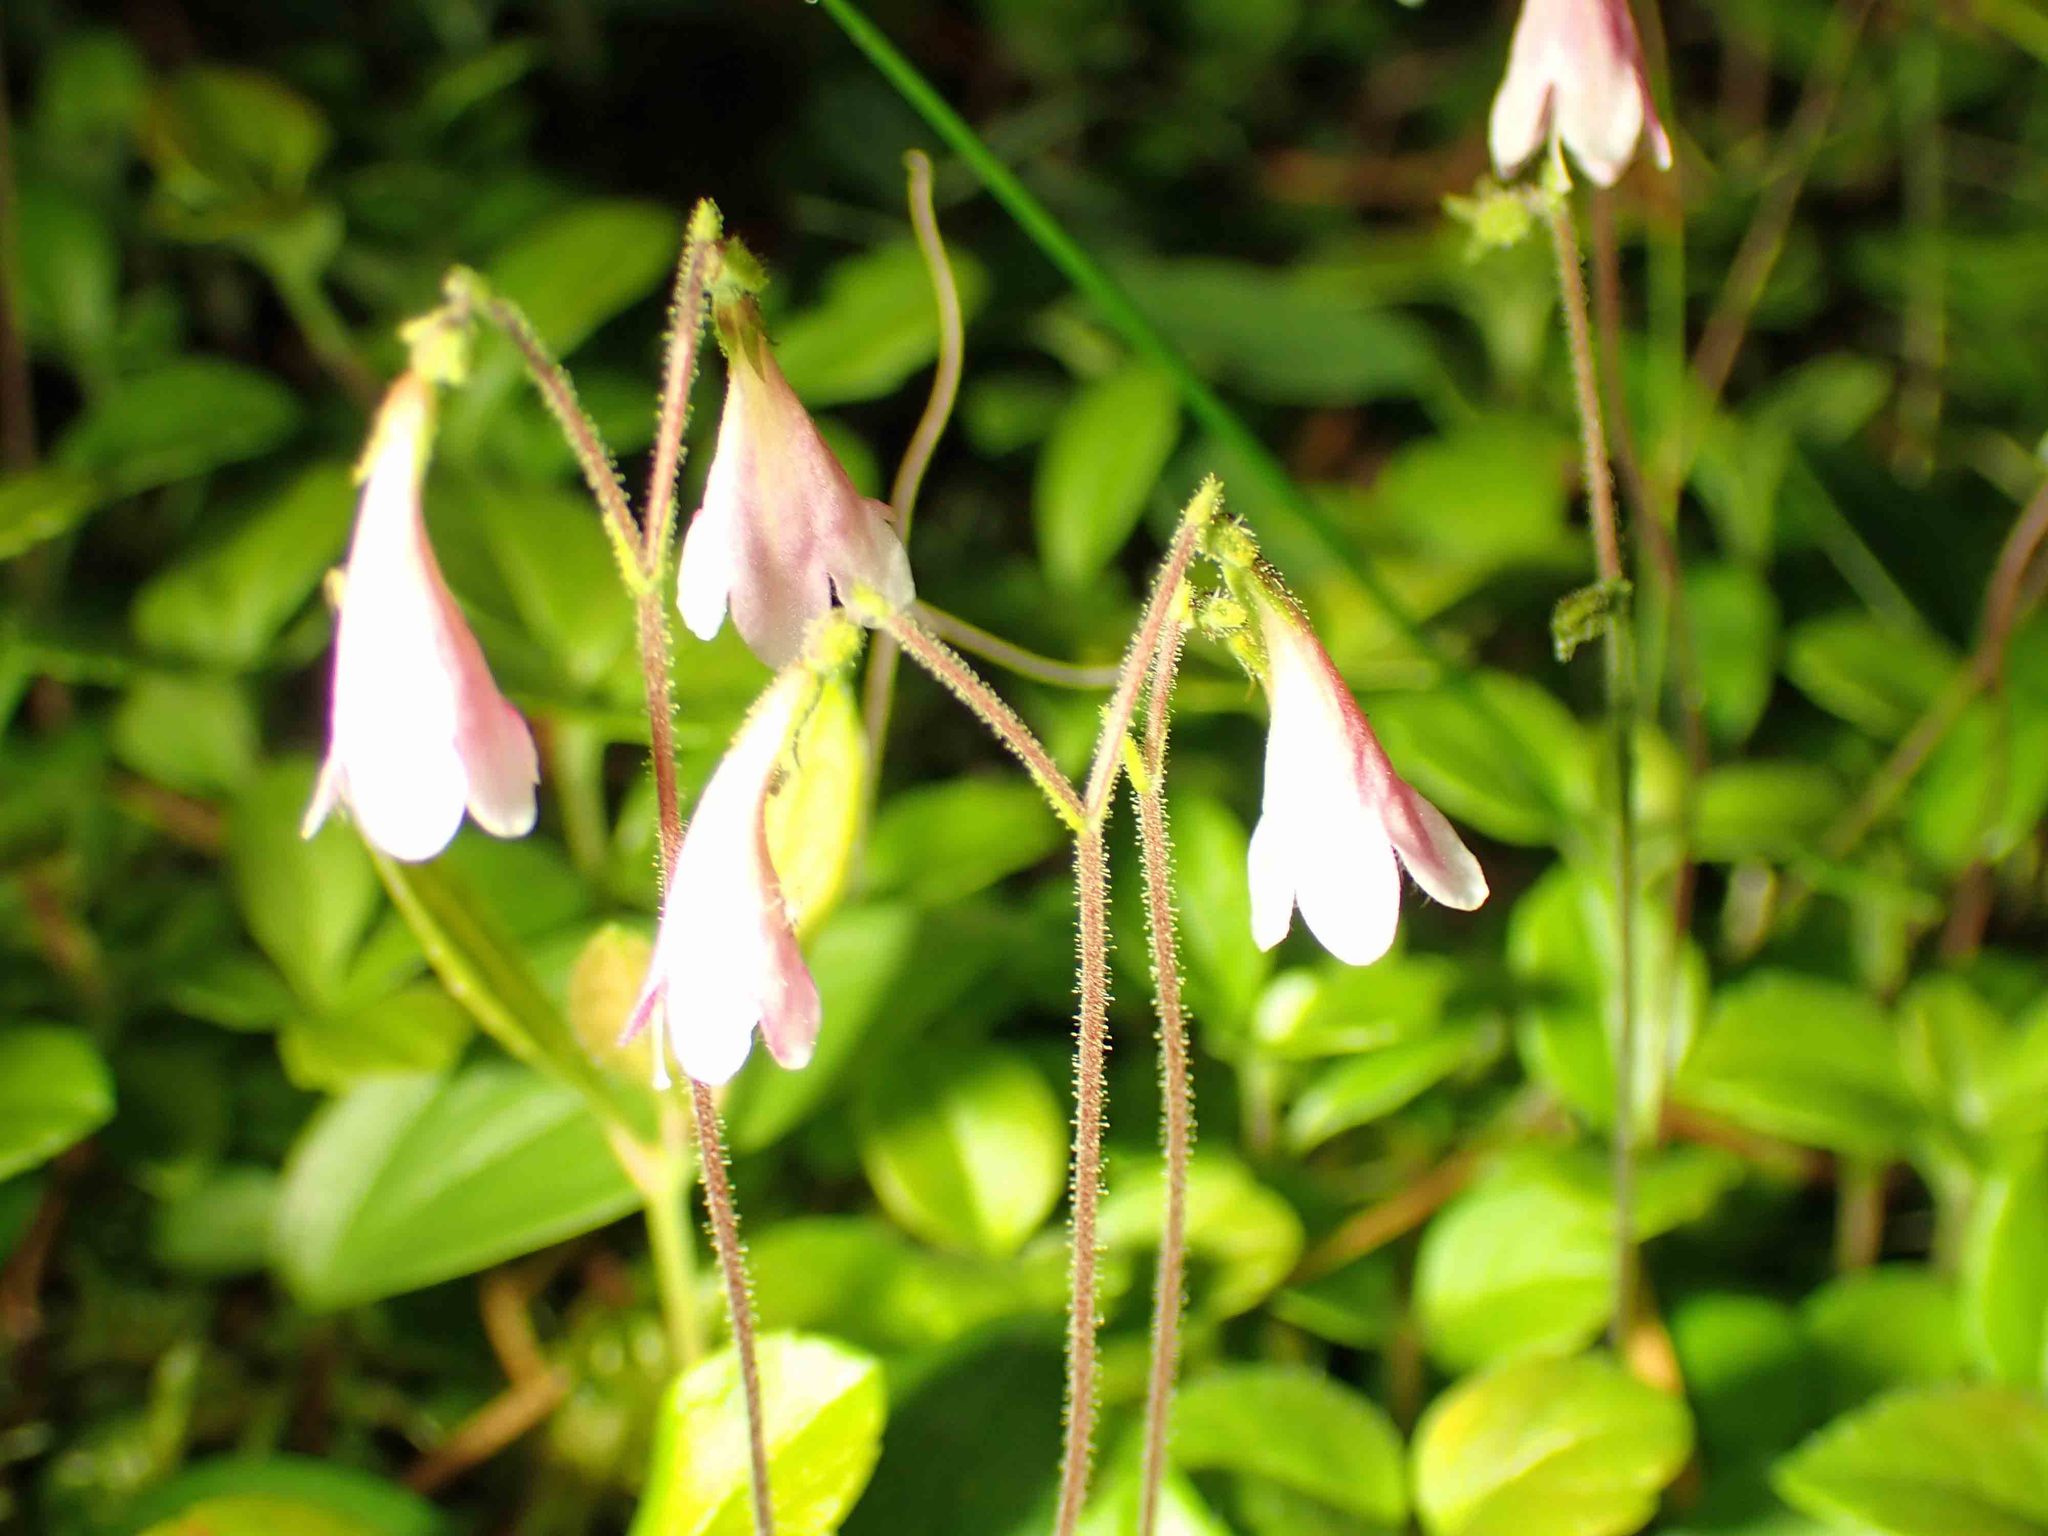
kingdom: Plantae
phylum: Tracheophyta
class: Magnoliopsida
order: Dipsacales
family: Caprifoliaceae
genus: Linnaea
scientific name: Linnaea borealis
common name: Twinflower
